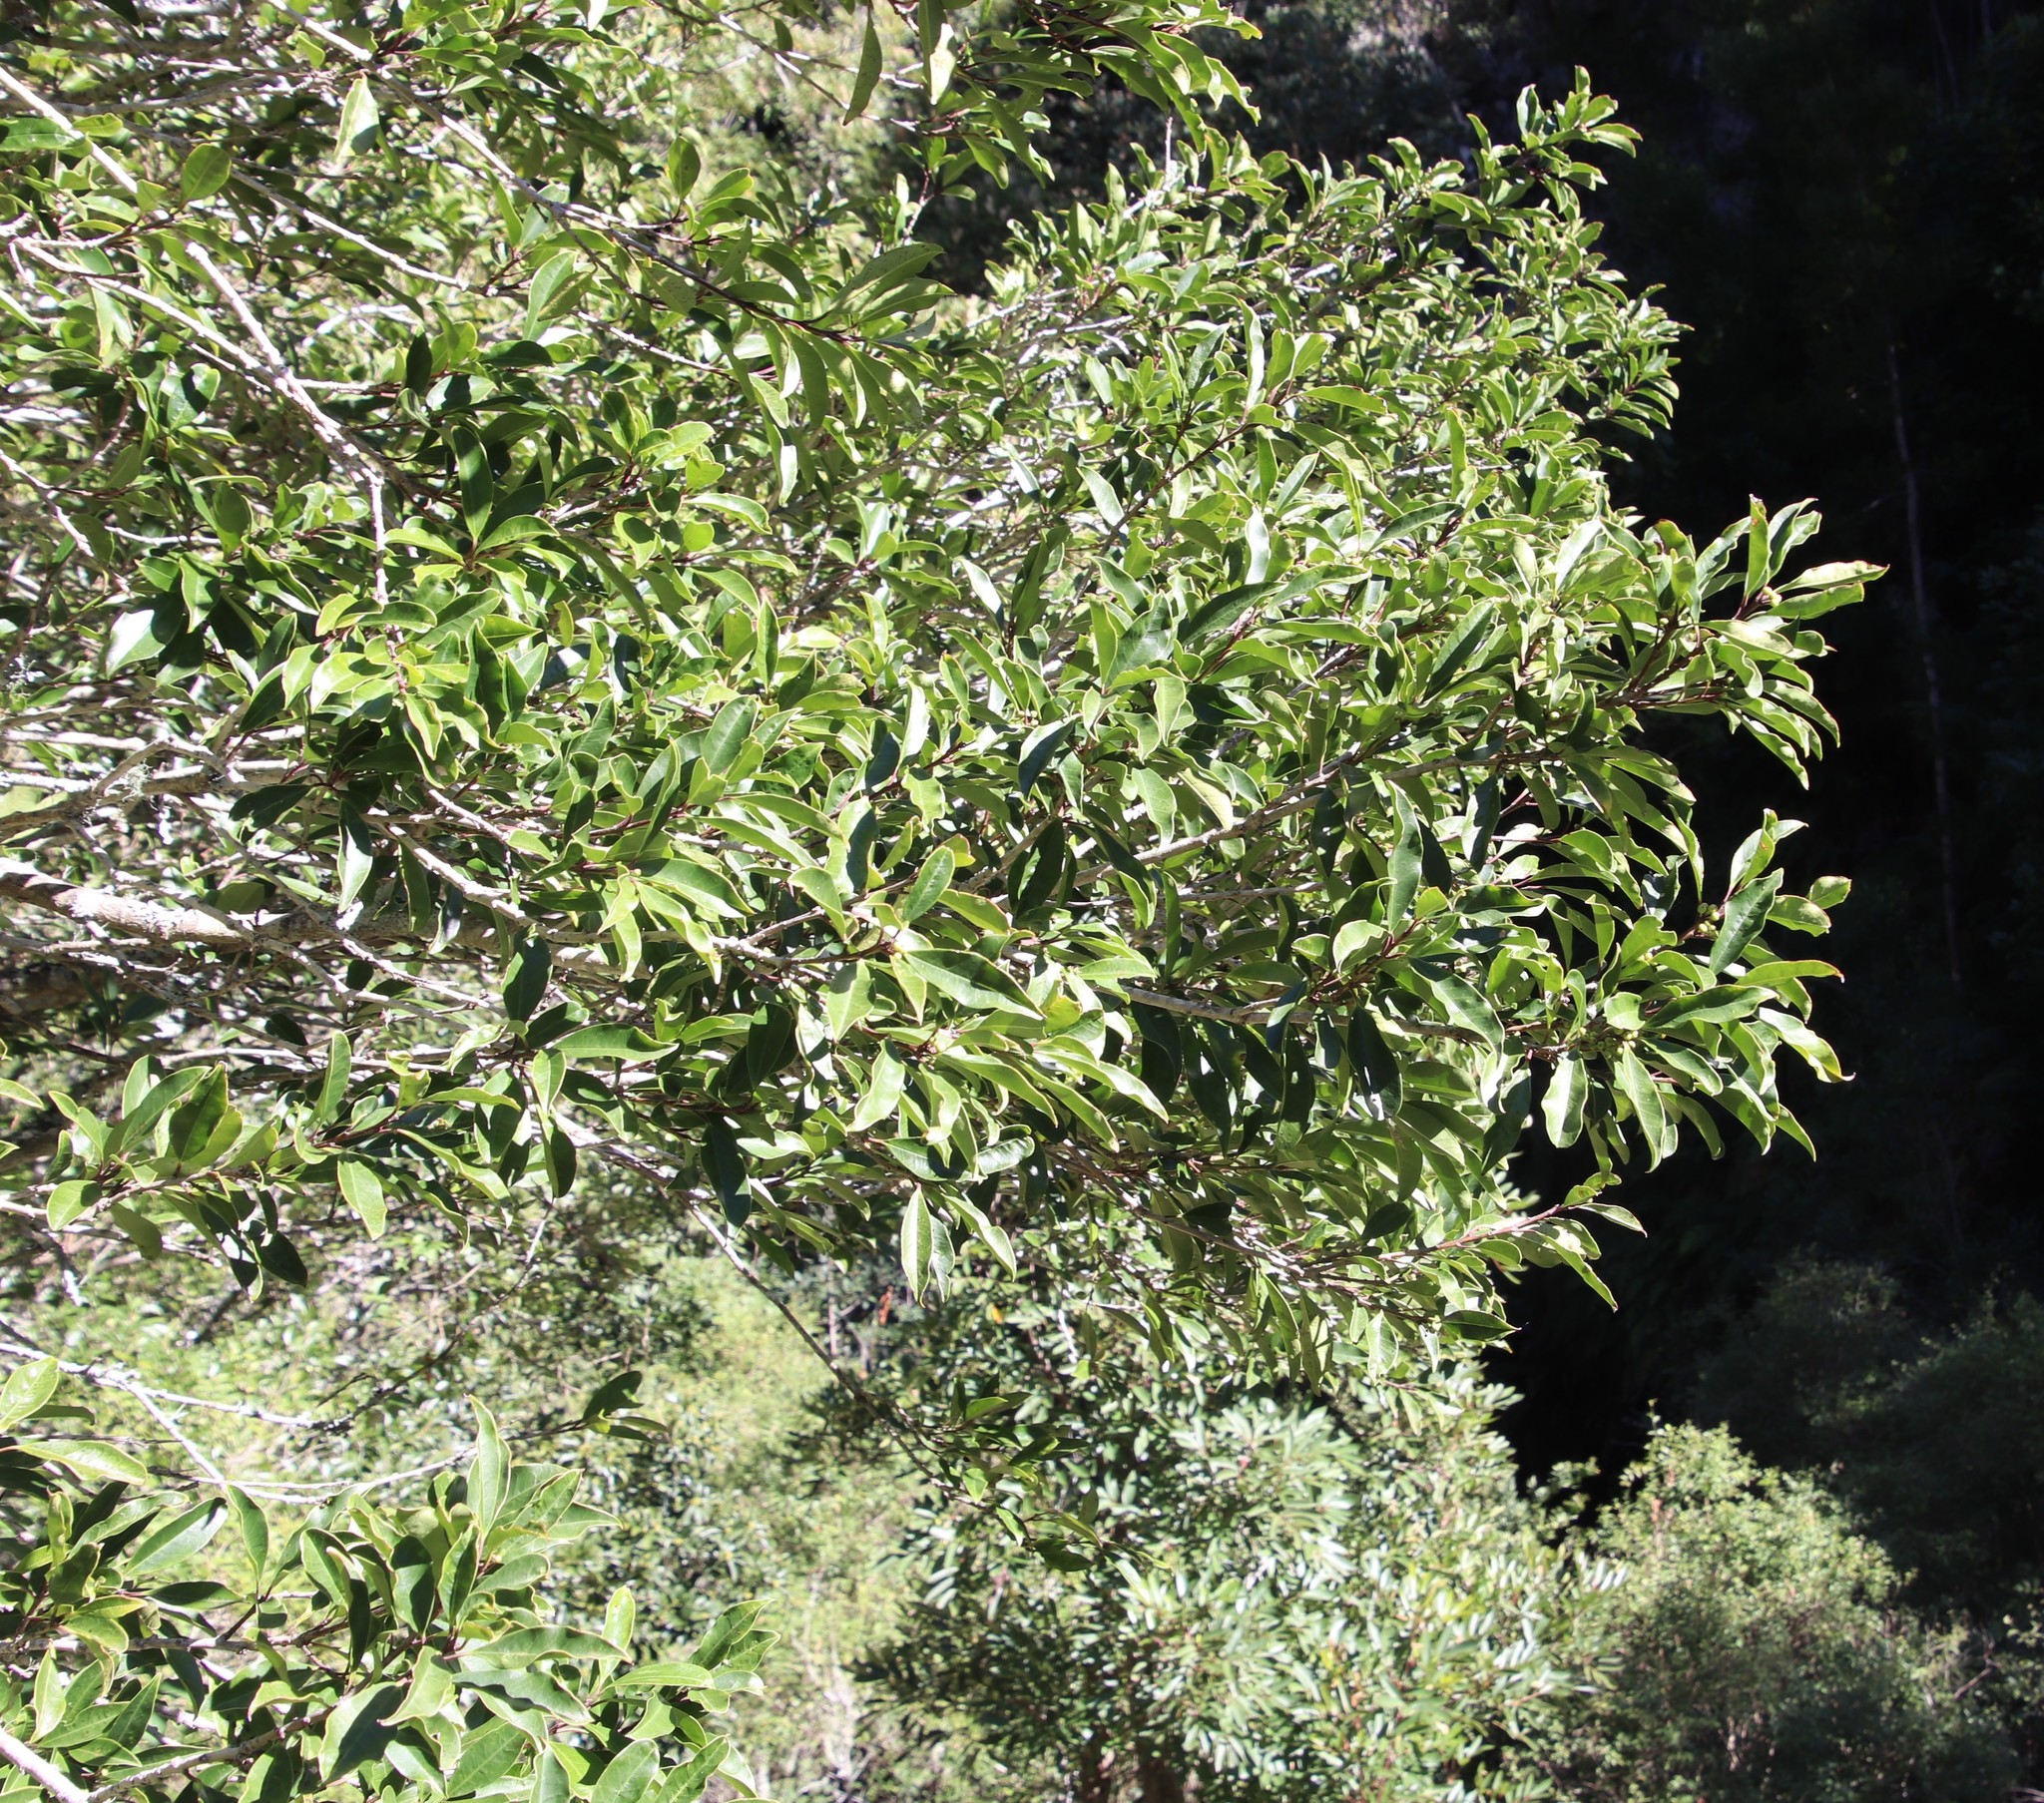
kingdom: Plantae
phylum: Tracheophyta
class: Magnoliopsida
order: Aquifoliales
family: Aquifoliaceae
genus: Ilex
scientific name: Ilex mitis
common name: African holly
